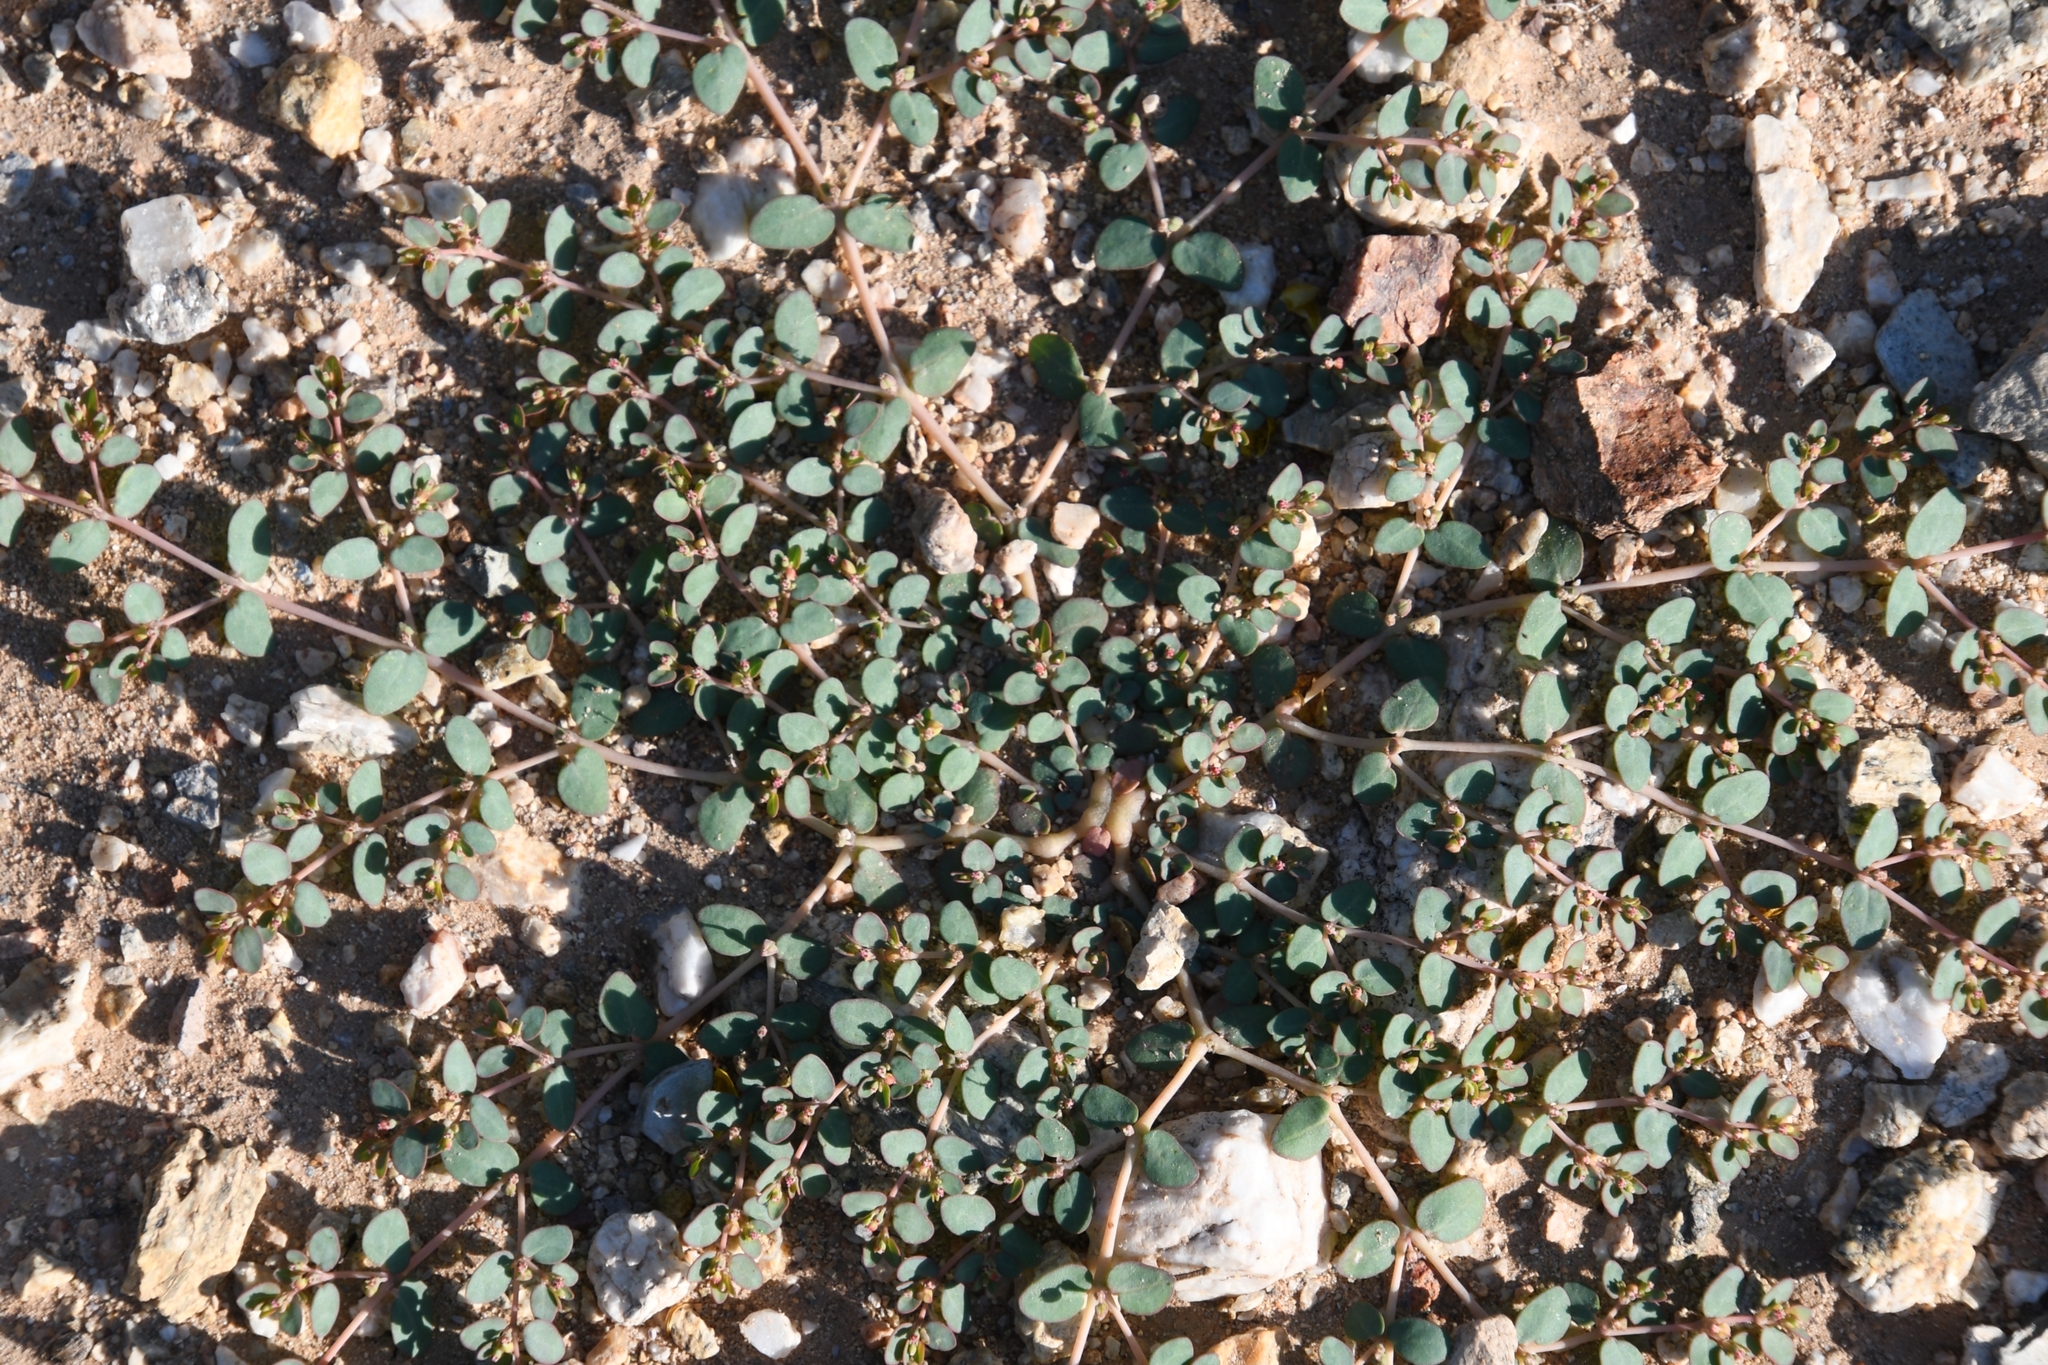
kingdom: Plantae
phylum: Tracheophyta
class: Magnoliopsida
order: Malpighiales
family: Euphorbiaceae
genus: Euphorbia
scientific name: Euphorbia micromera
